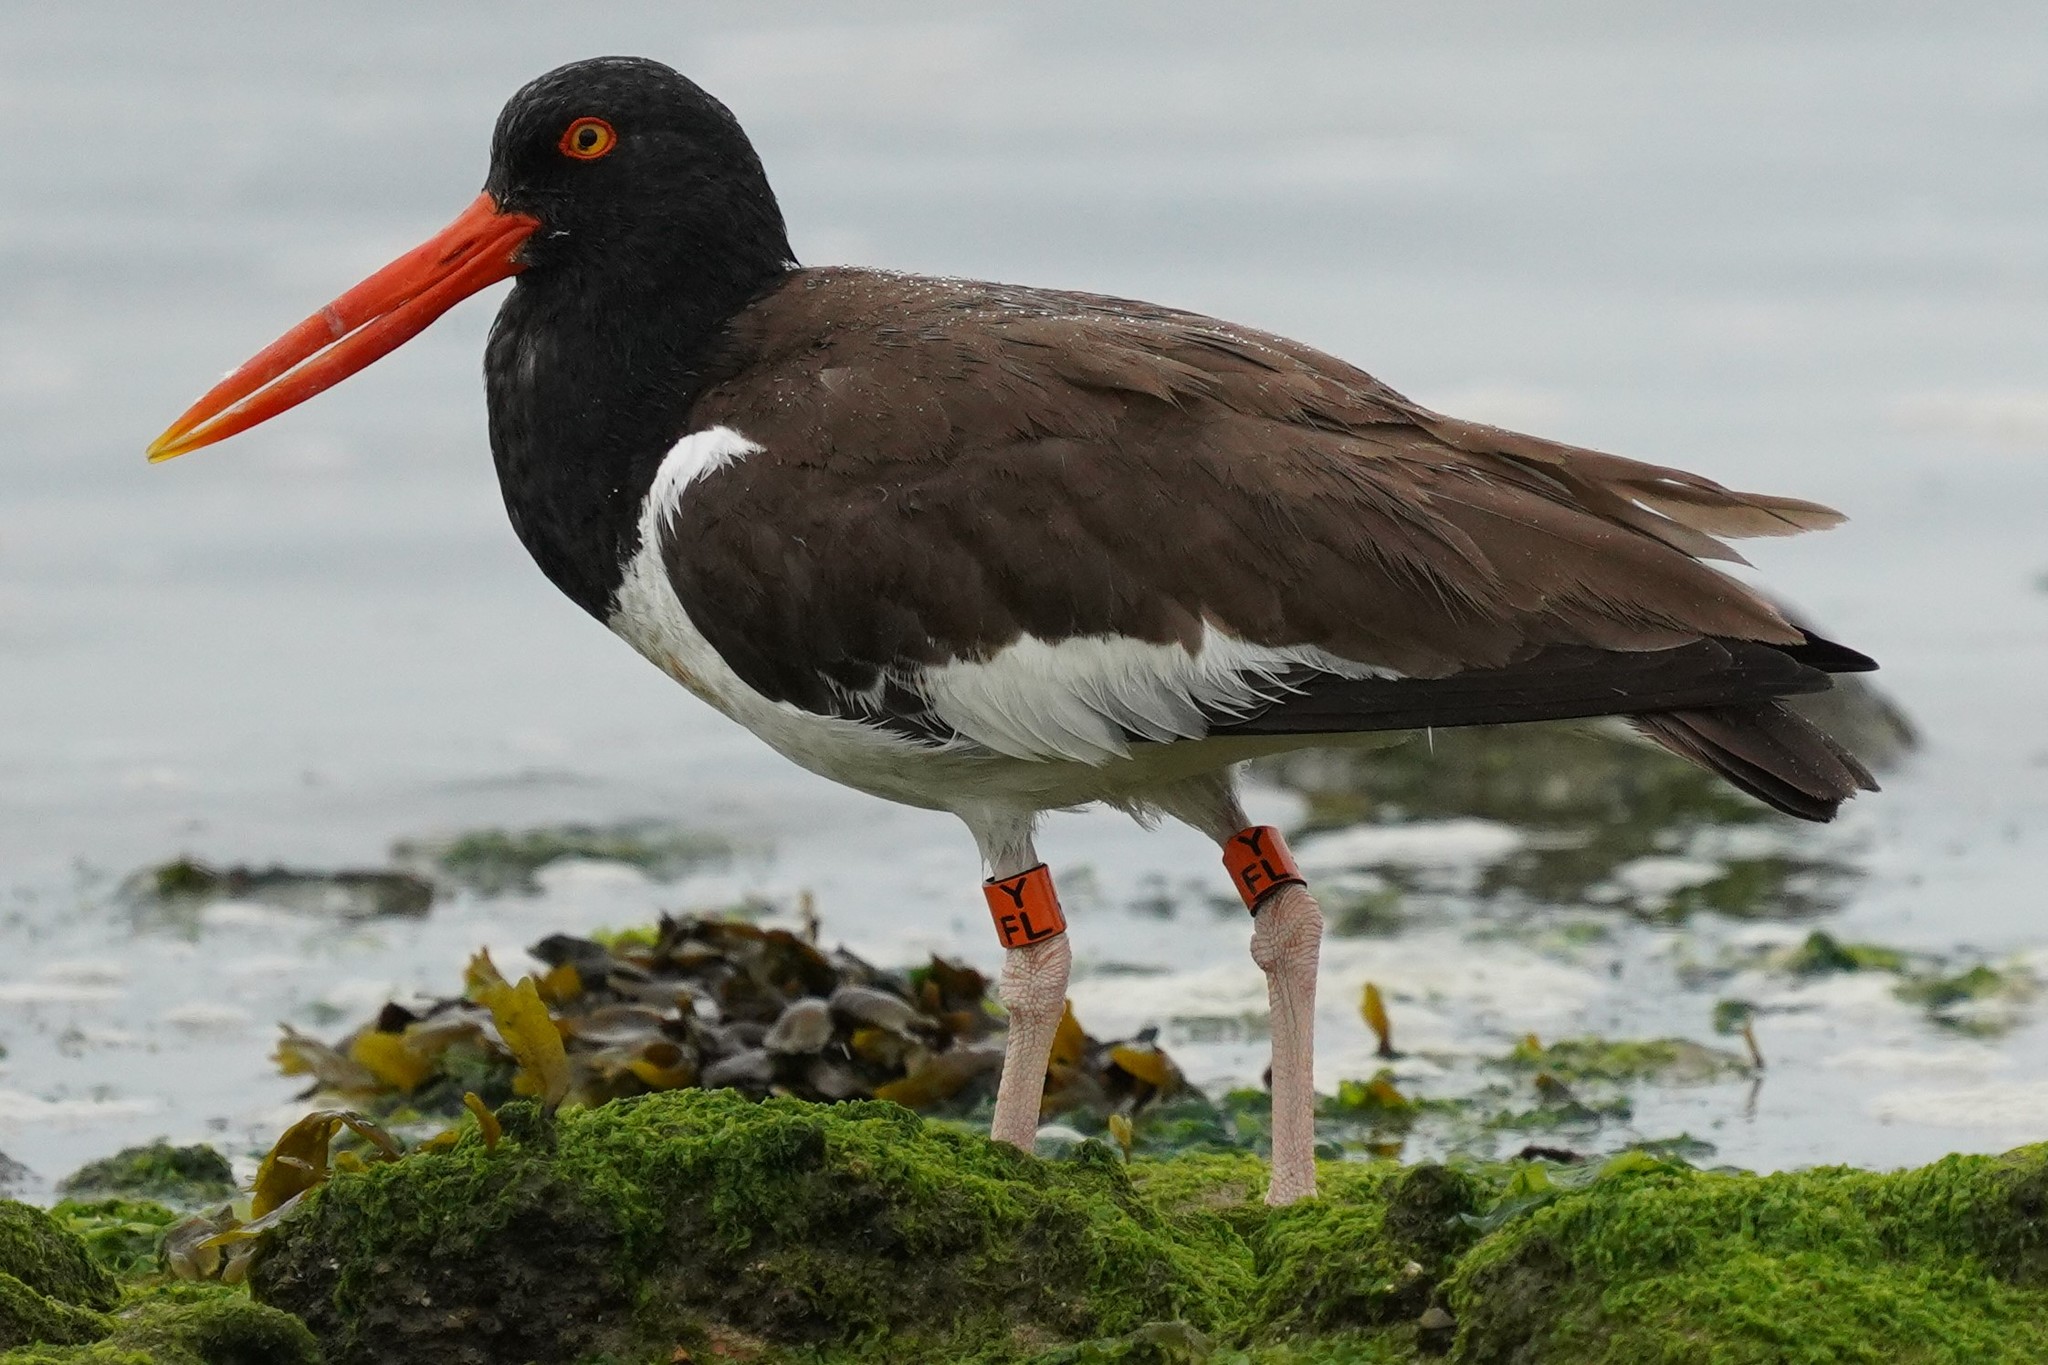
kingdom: Animalia
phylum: Chordata
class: Aves
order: Charadriiformes
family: Haematopodidae
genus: Haematopus
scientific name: Haematopus palliatus
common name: American oystercatcher
